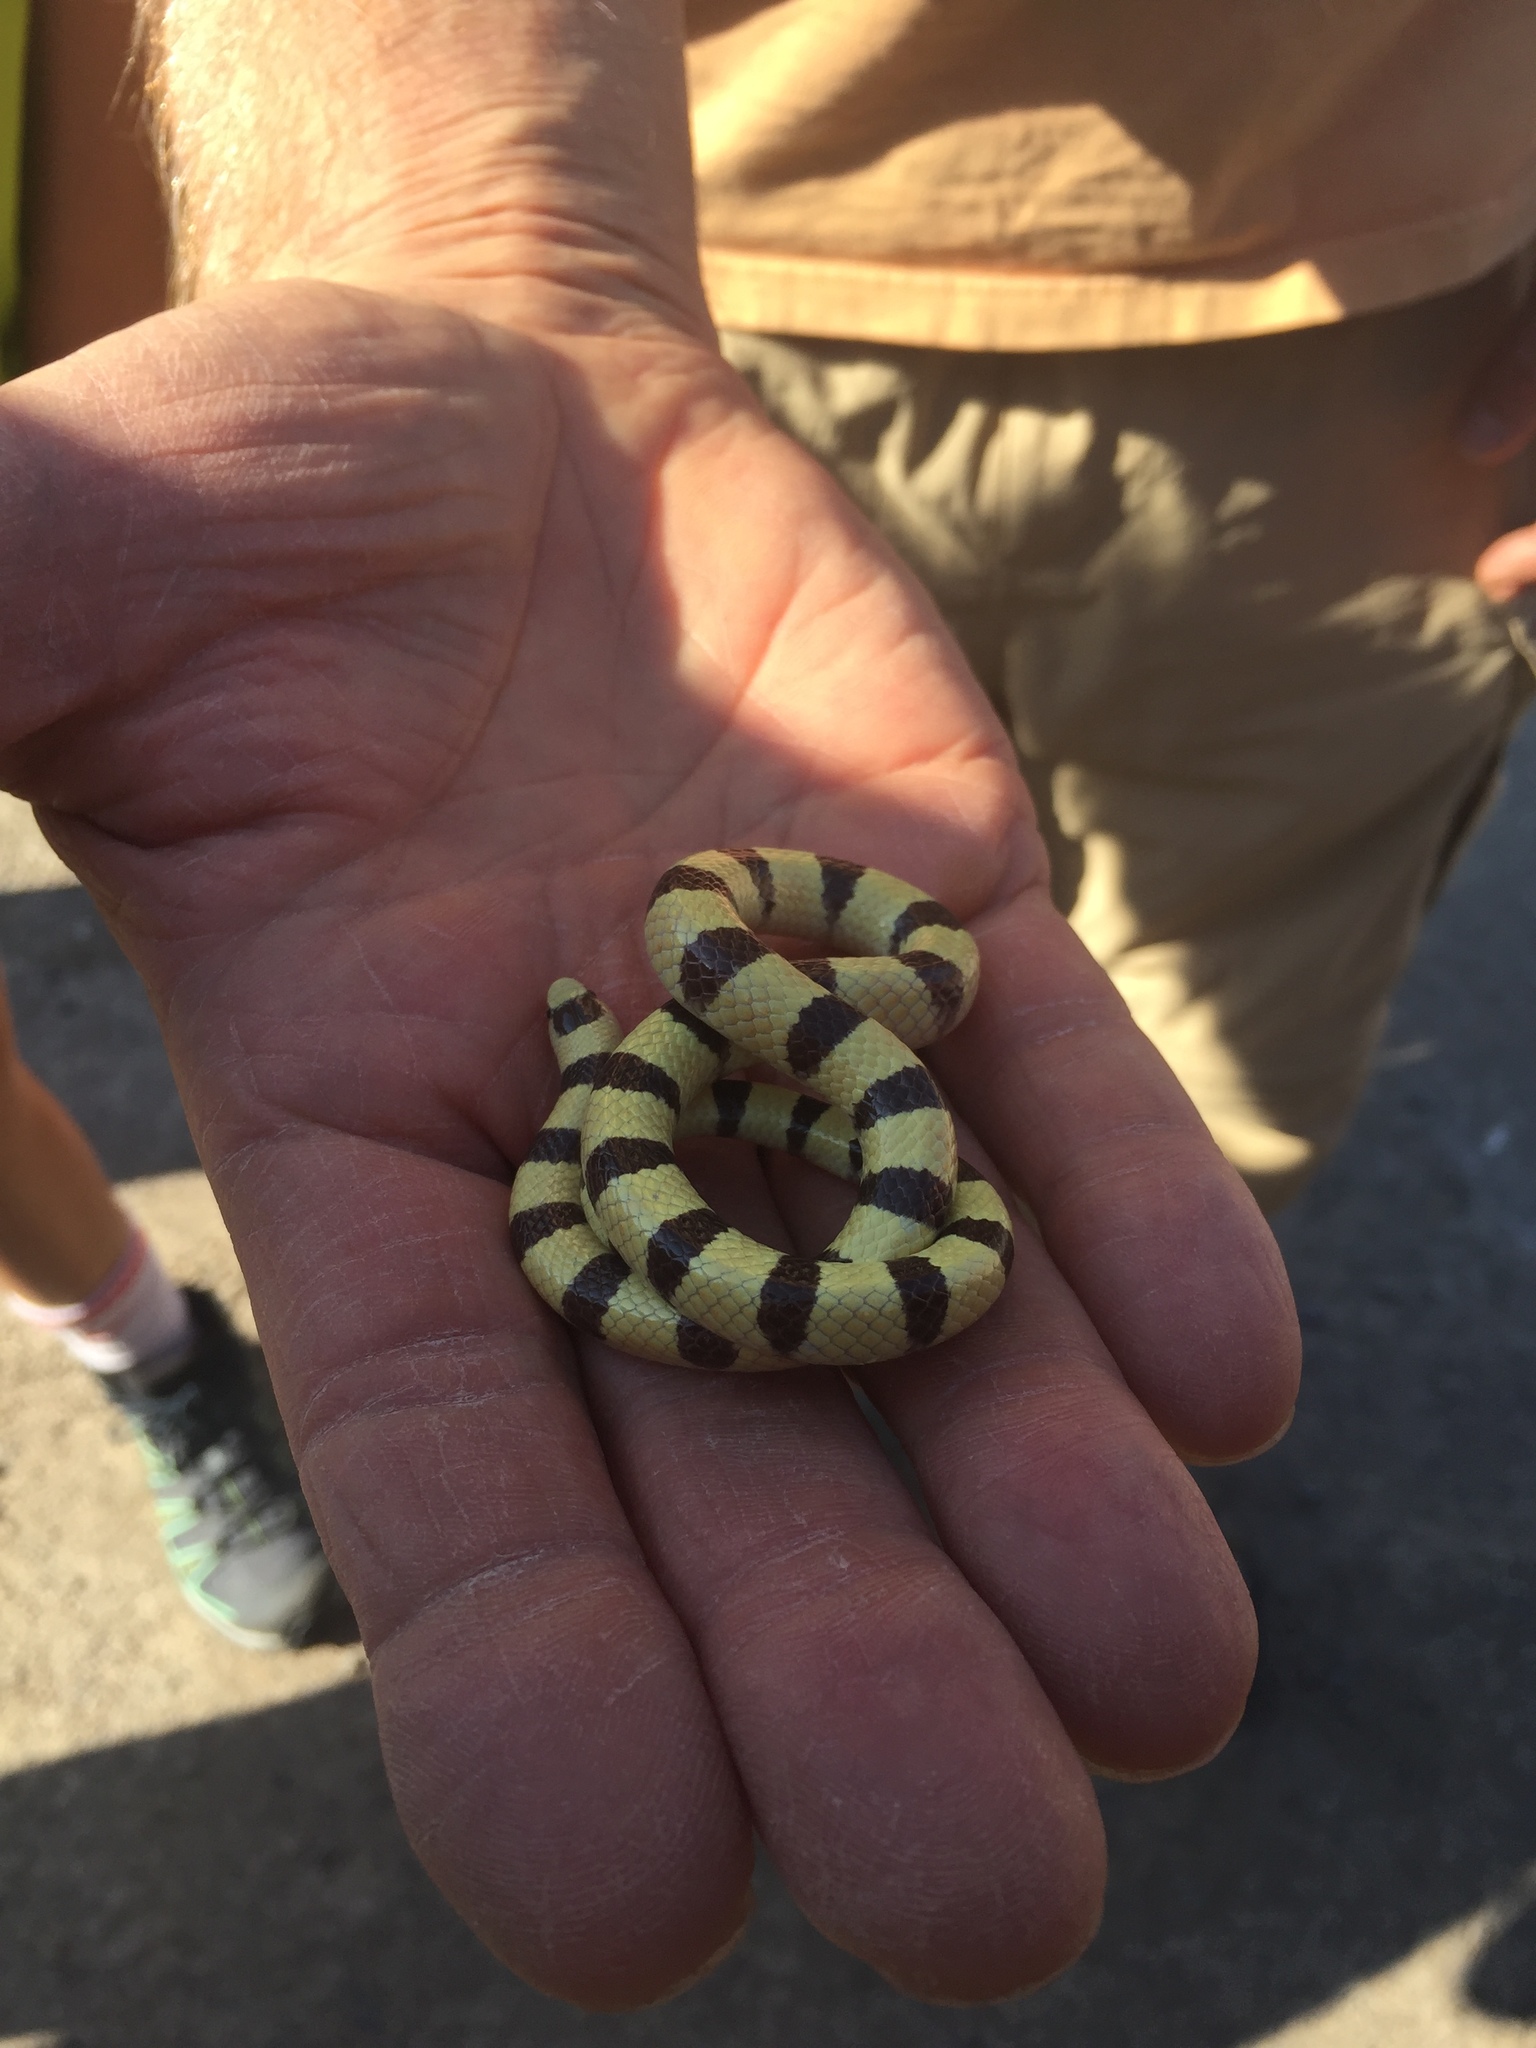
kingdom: Animalia
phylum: Chordata
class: Squamata
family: Colubridae
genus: Sonora
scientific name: Sonora occipitalis
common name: Western shovelnose snake
